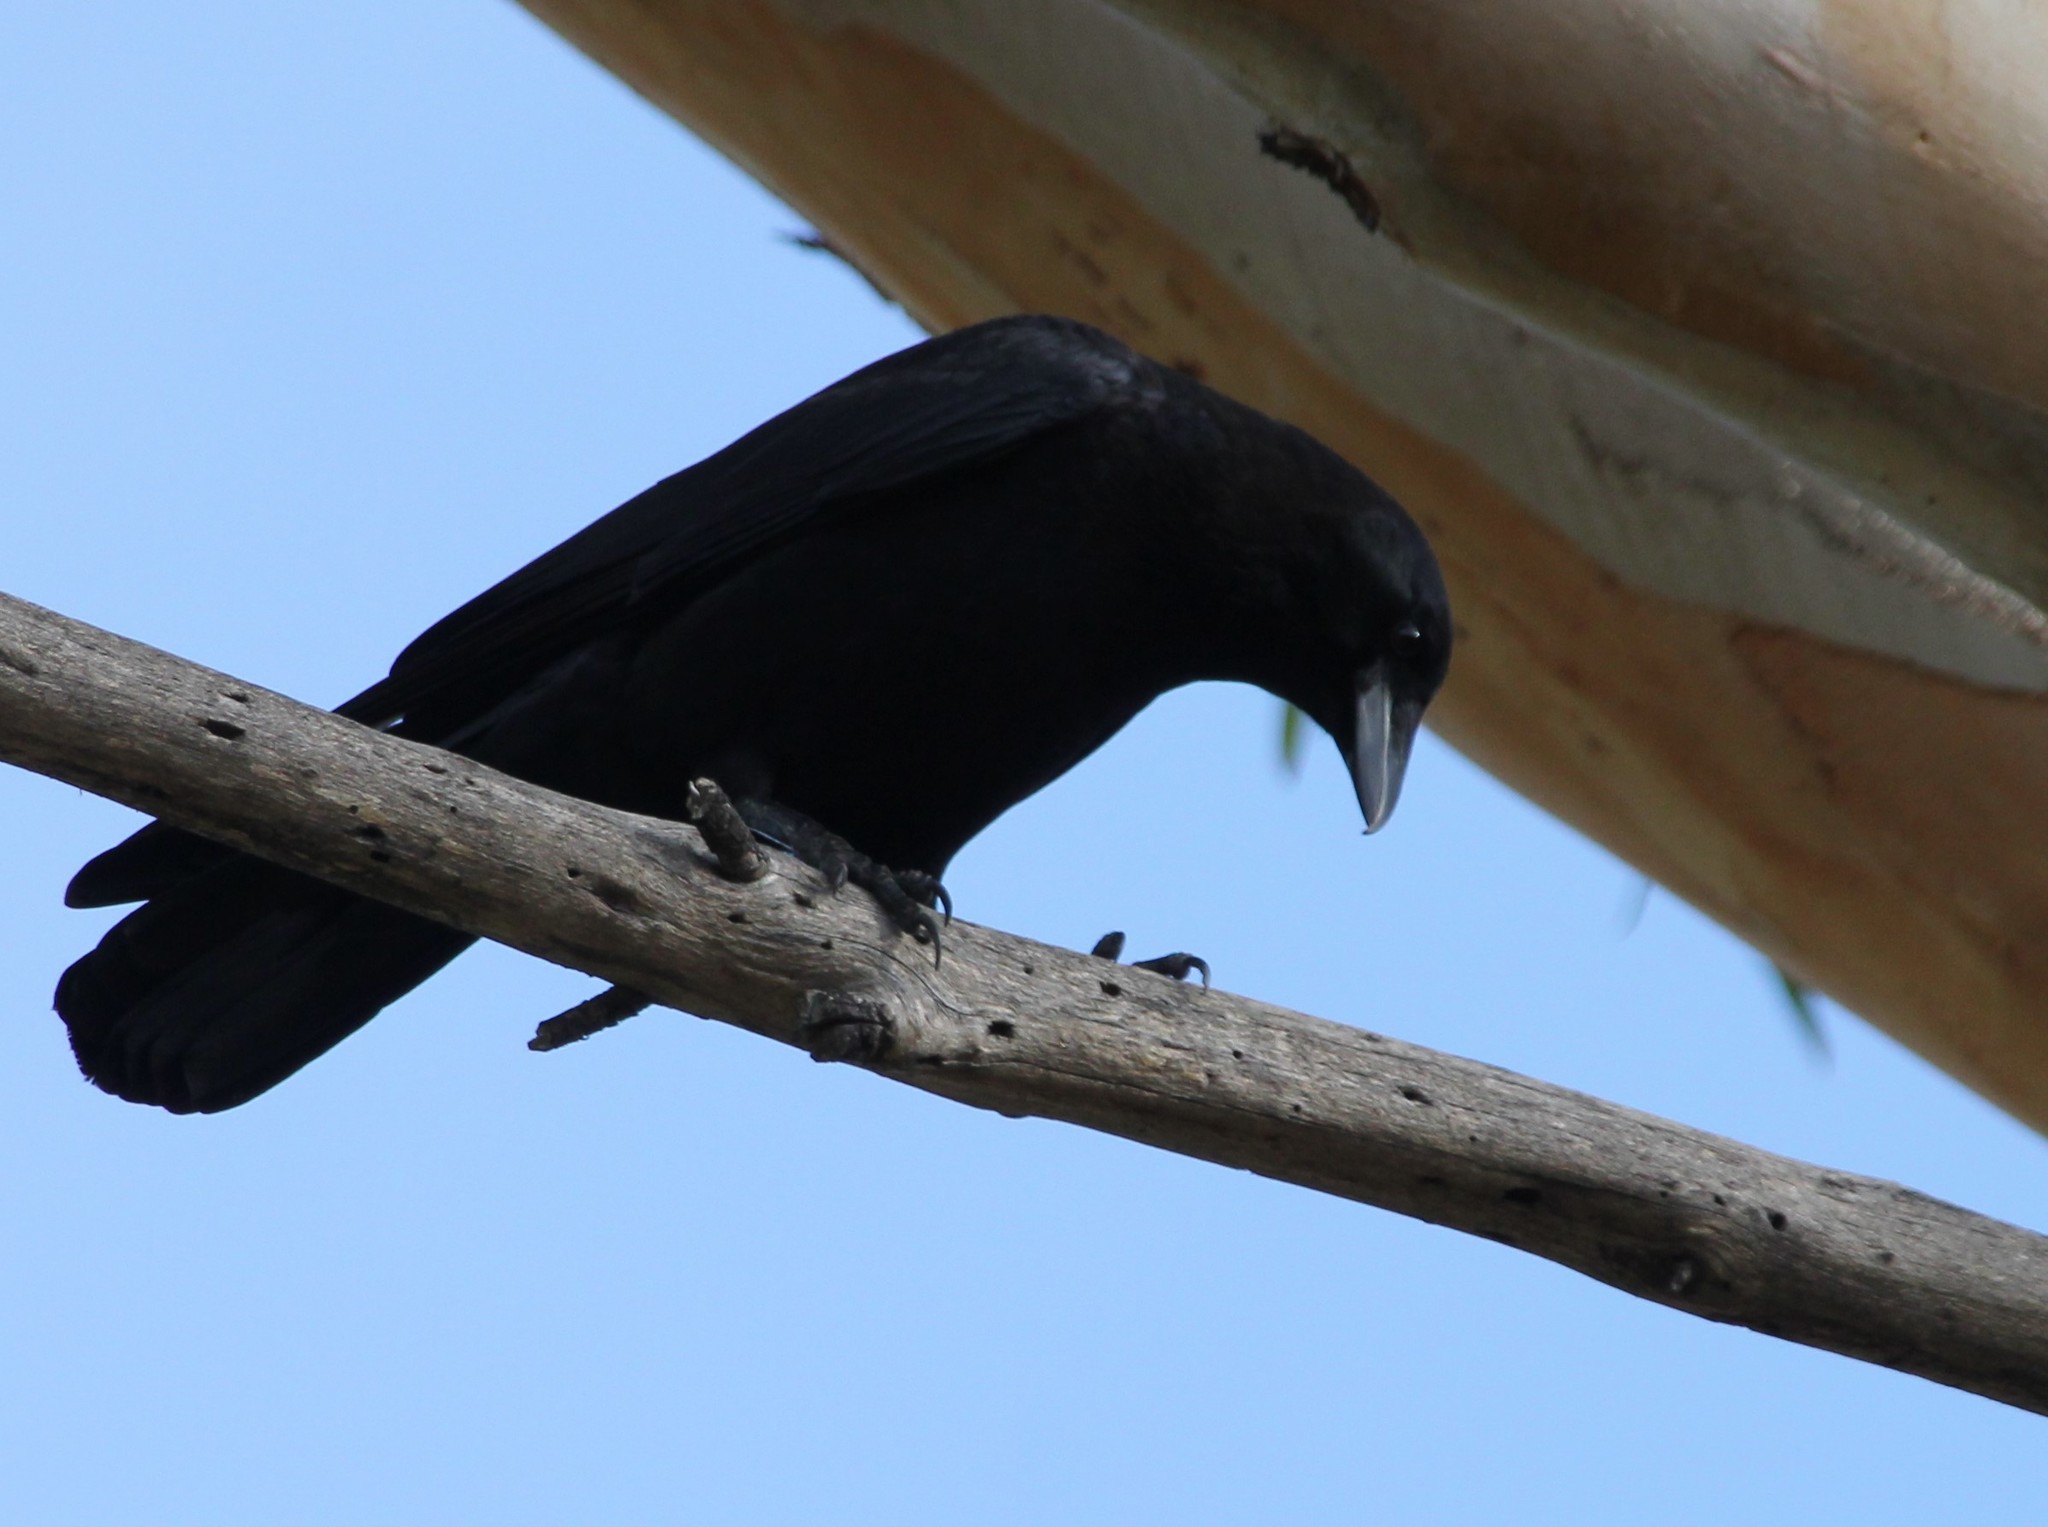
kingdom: Animalia
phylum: Chordata
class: Aves
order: Passeriformes
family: Corvidae
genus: Corvus
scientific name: Corvus brachyrhynchos
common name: American crow
